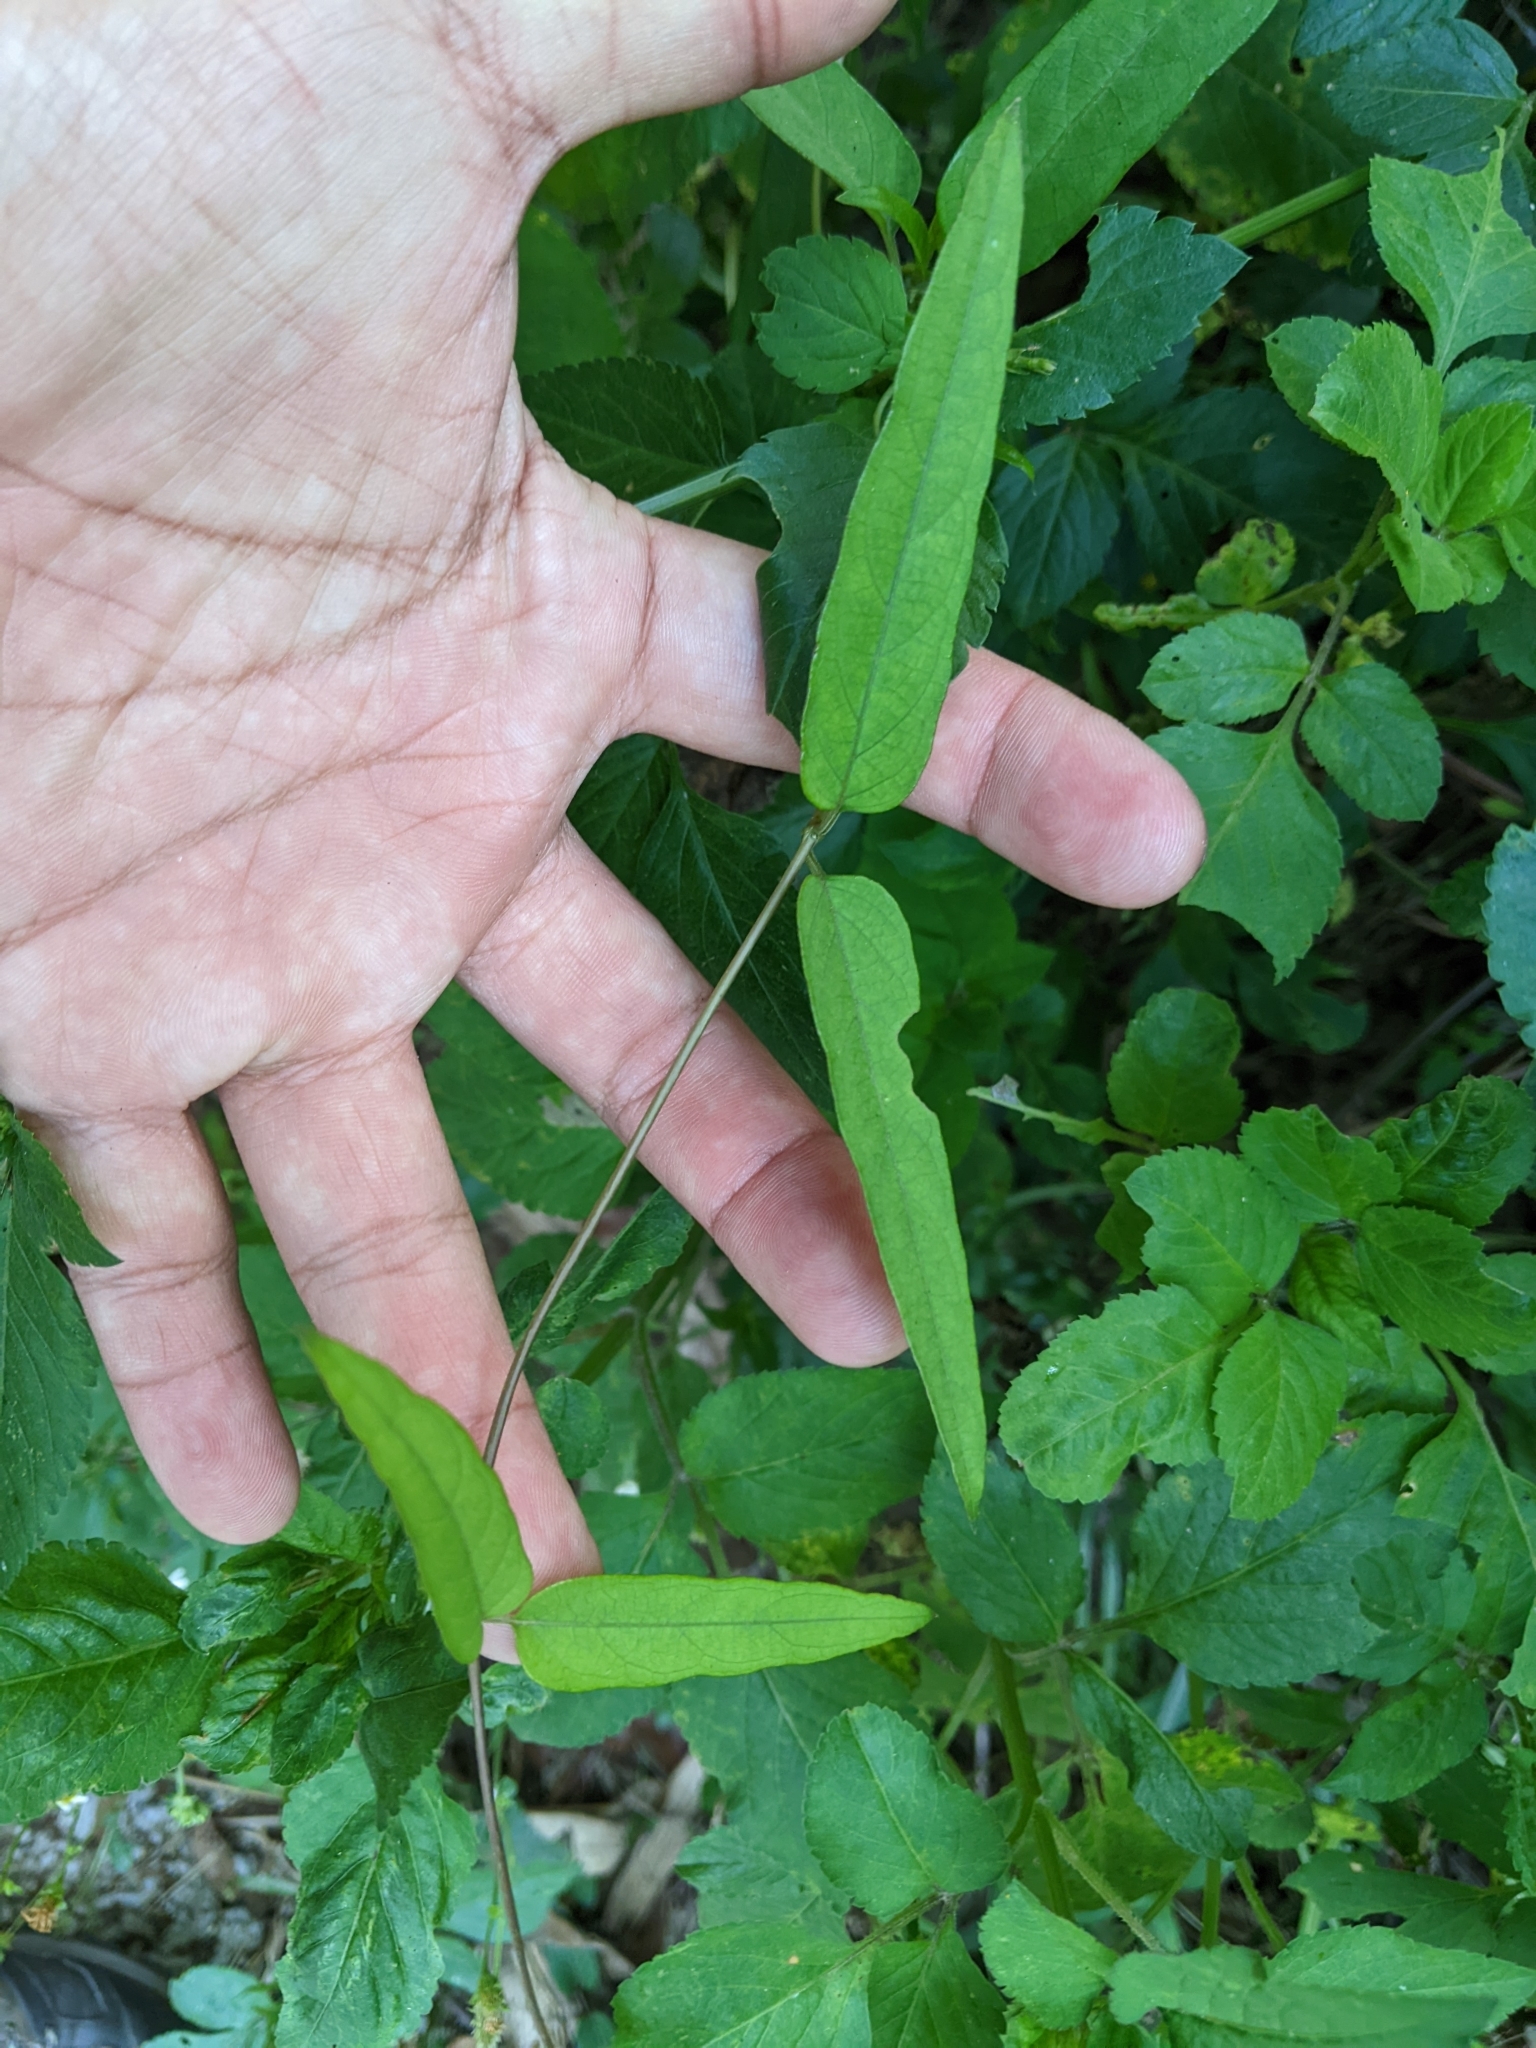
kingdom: Plantae
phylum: Tracheophyta
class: Magnoliopsida
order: Gentianales
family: Rubiaceae
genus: Paederia
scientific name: Paederia foetida
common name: Stinkvine
